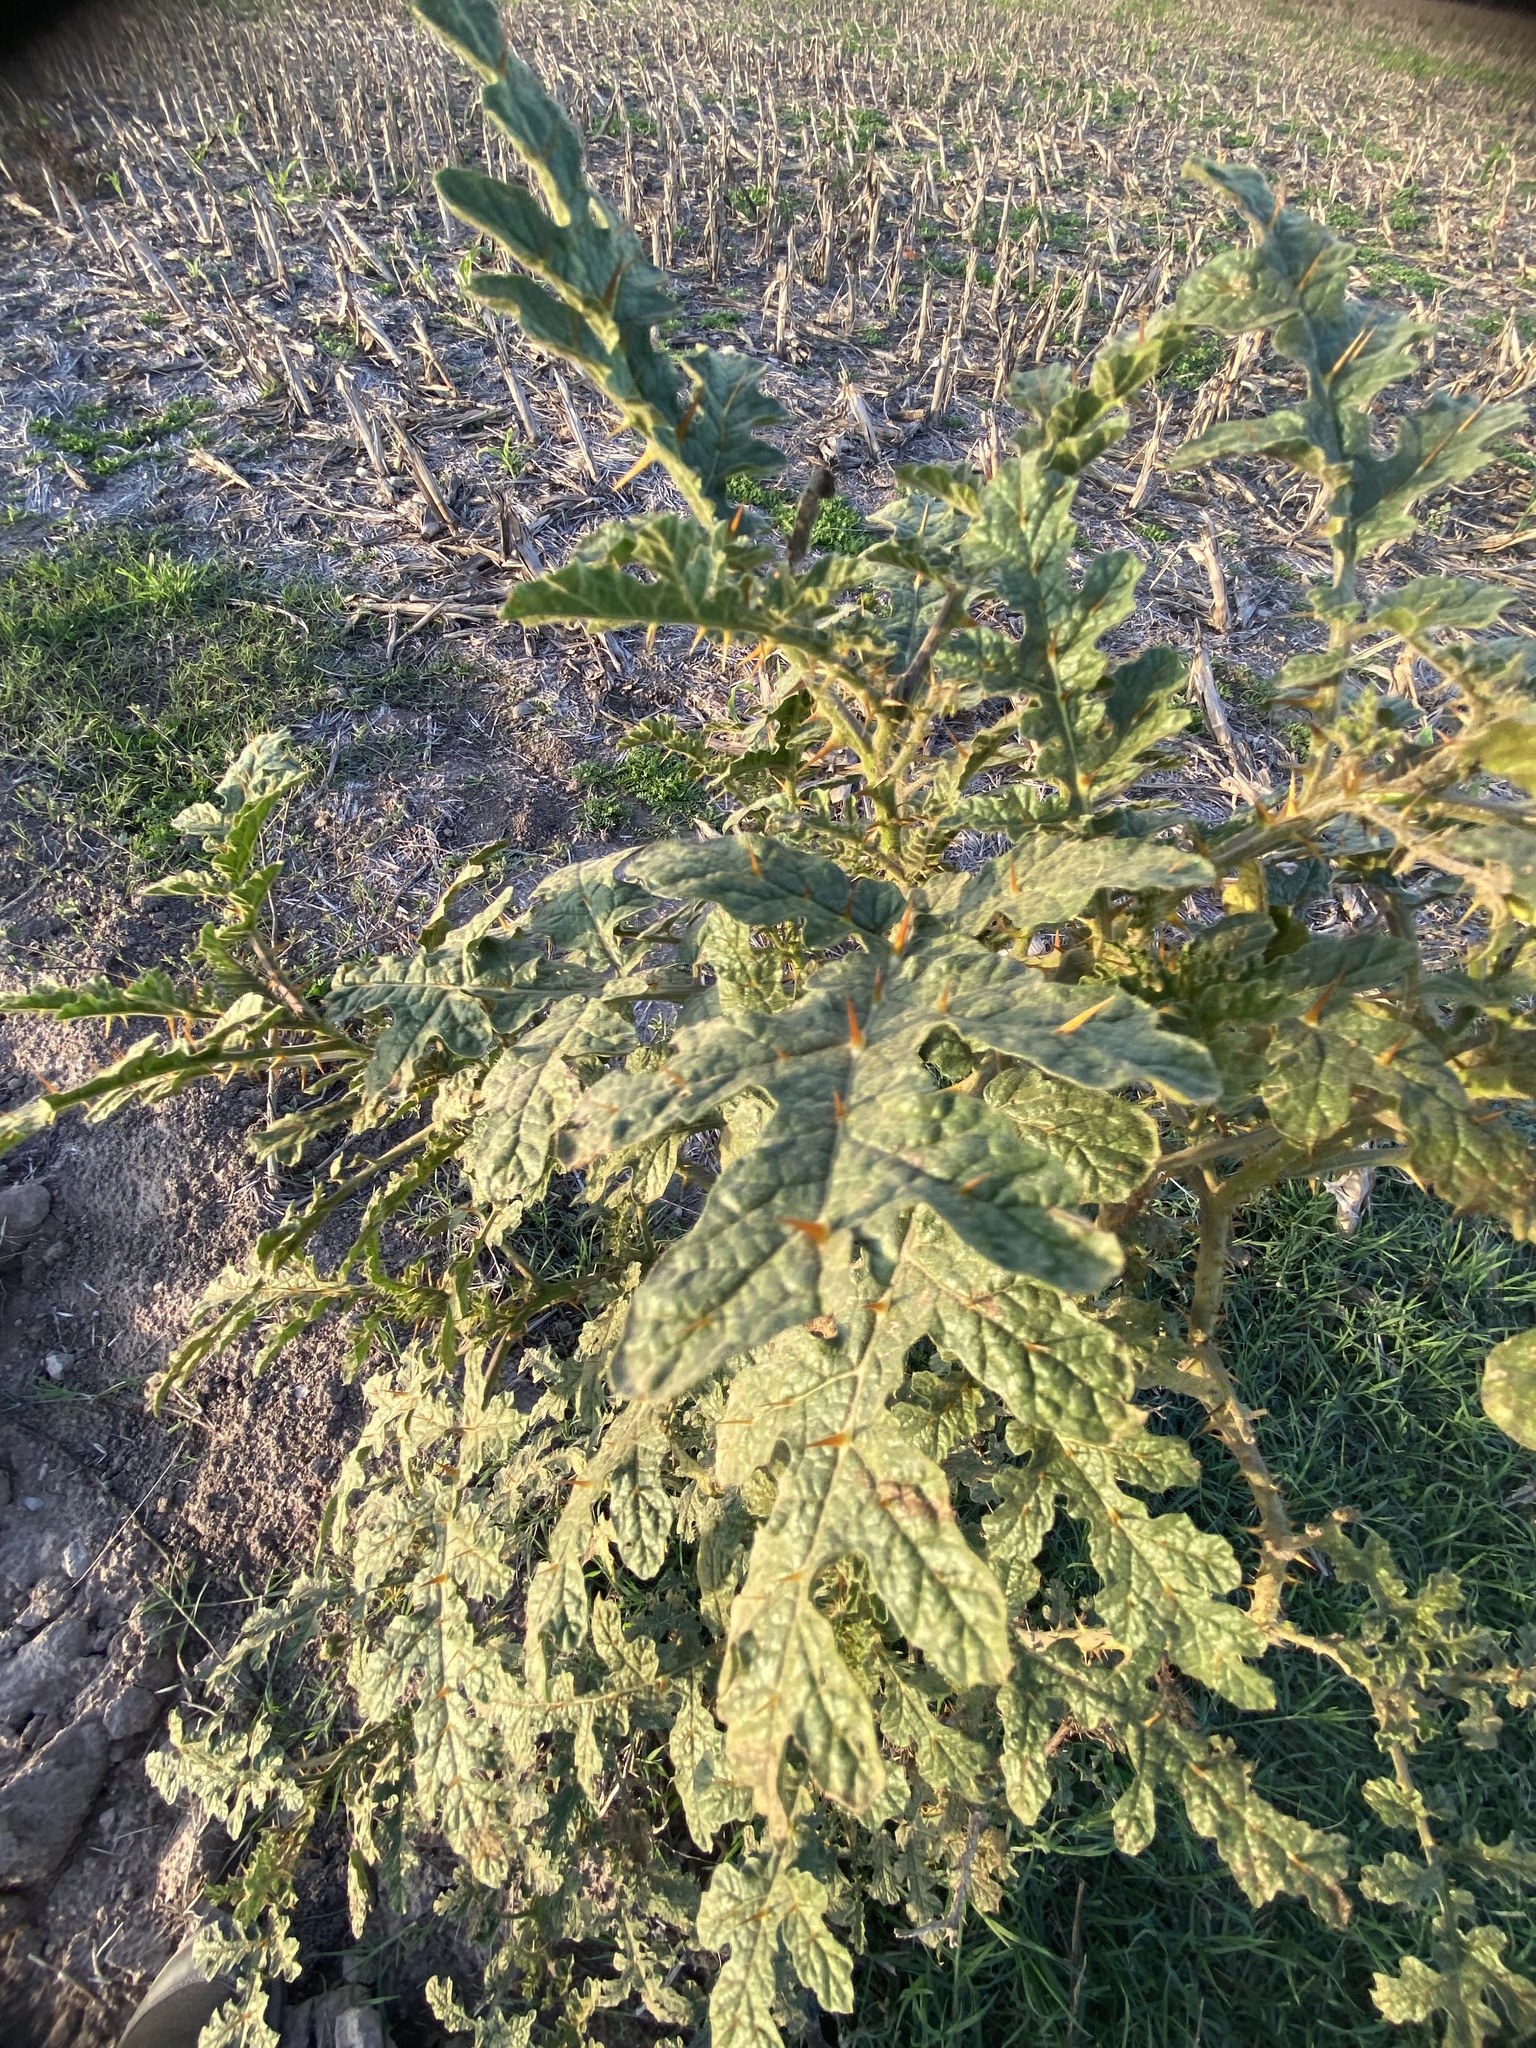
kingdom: Plantae
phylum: Tracheophyta
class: Magnoliopsida
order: Solanales
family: Solanaceae
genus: Solanum
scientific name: Solanum sisymbriifolium
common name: Red buffalo-bur
